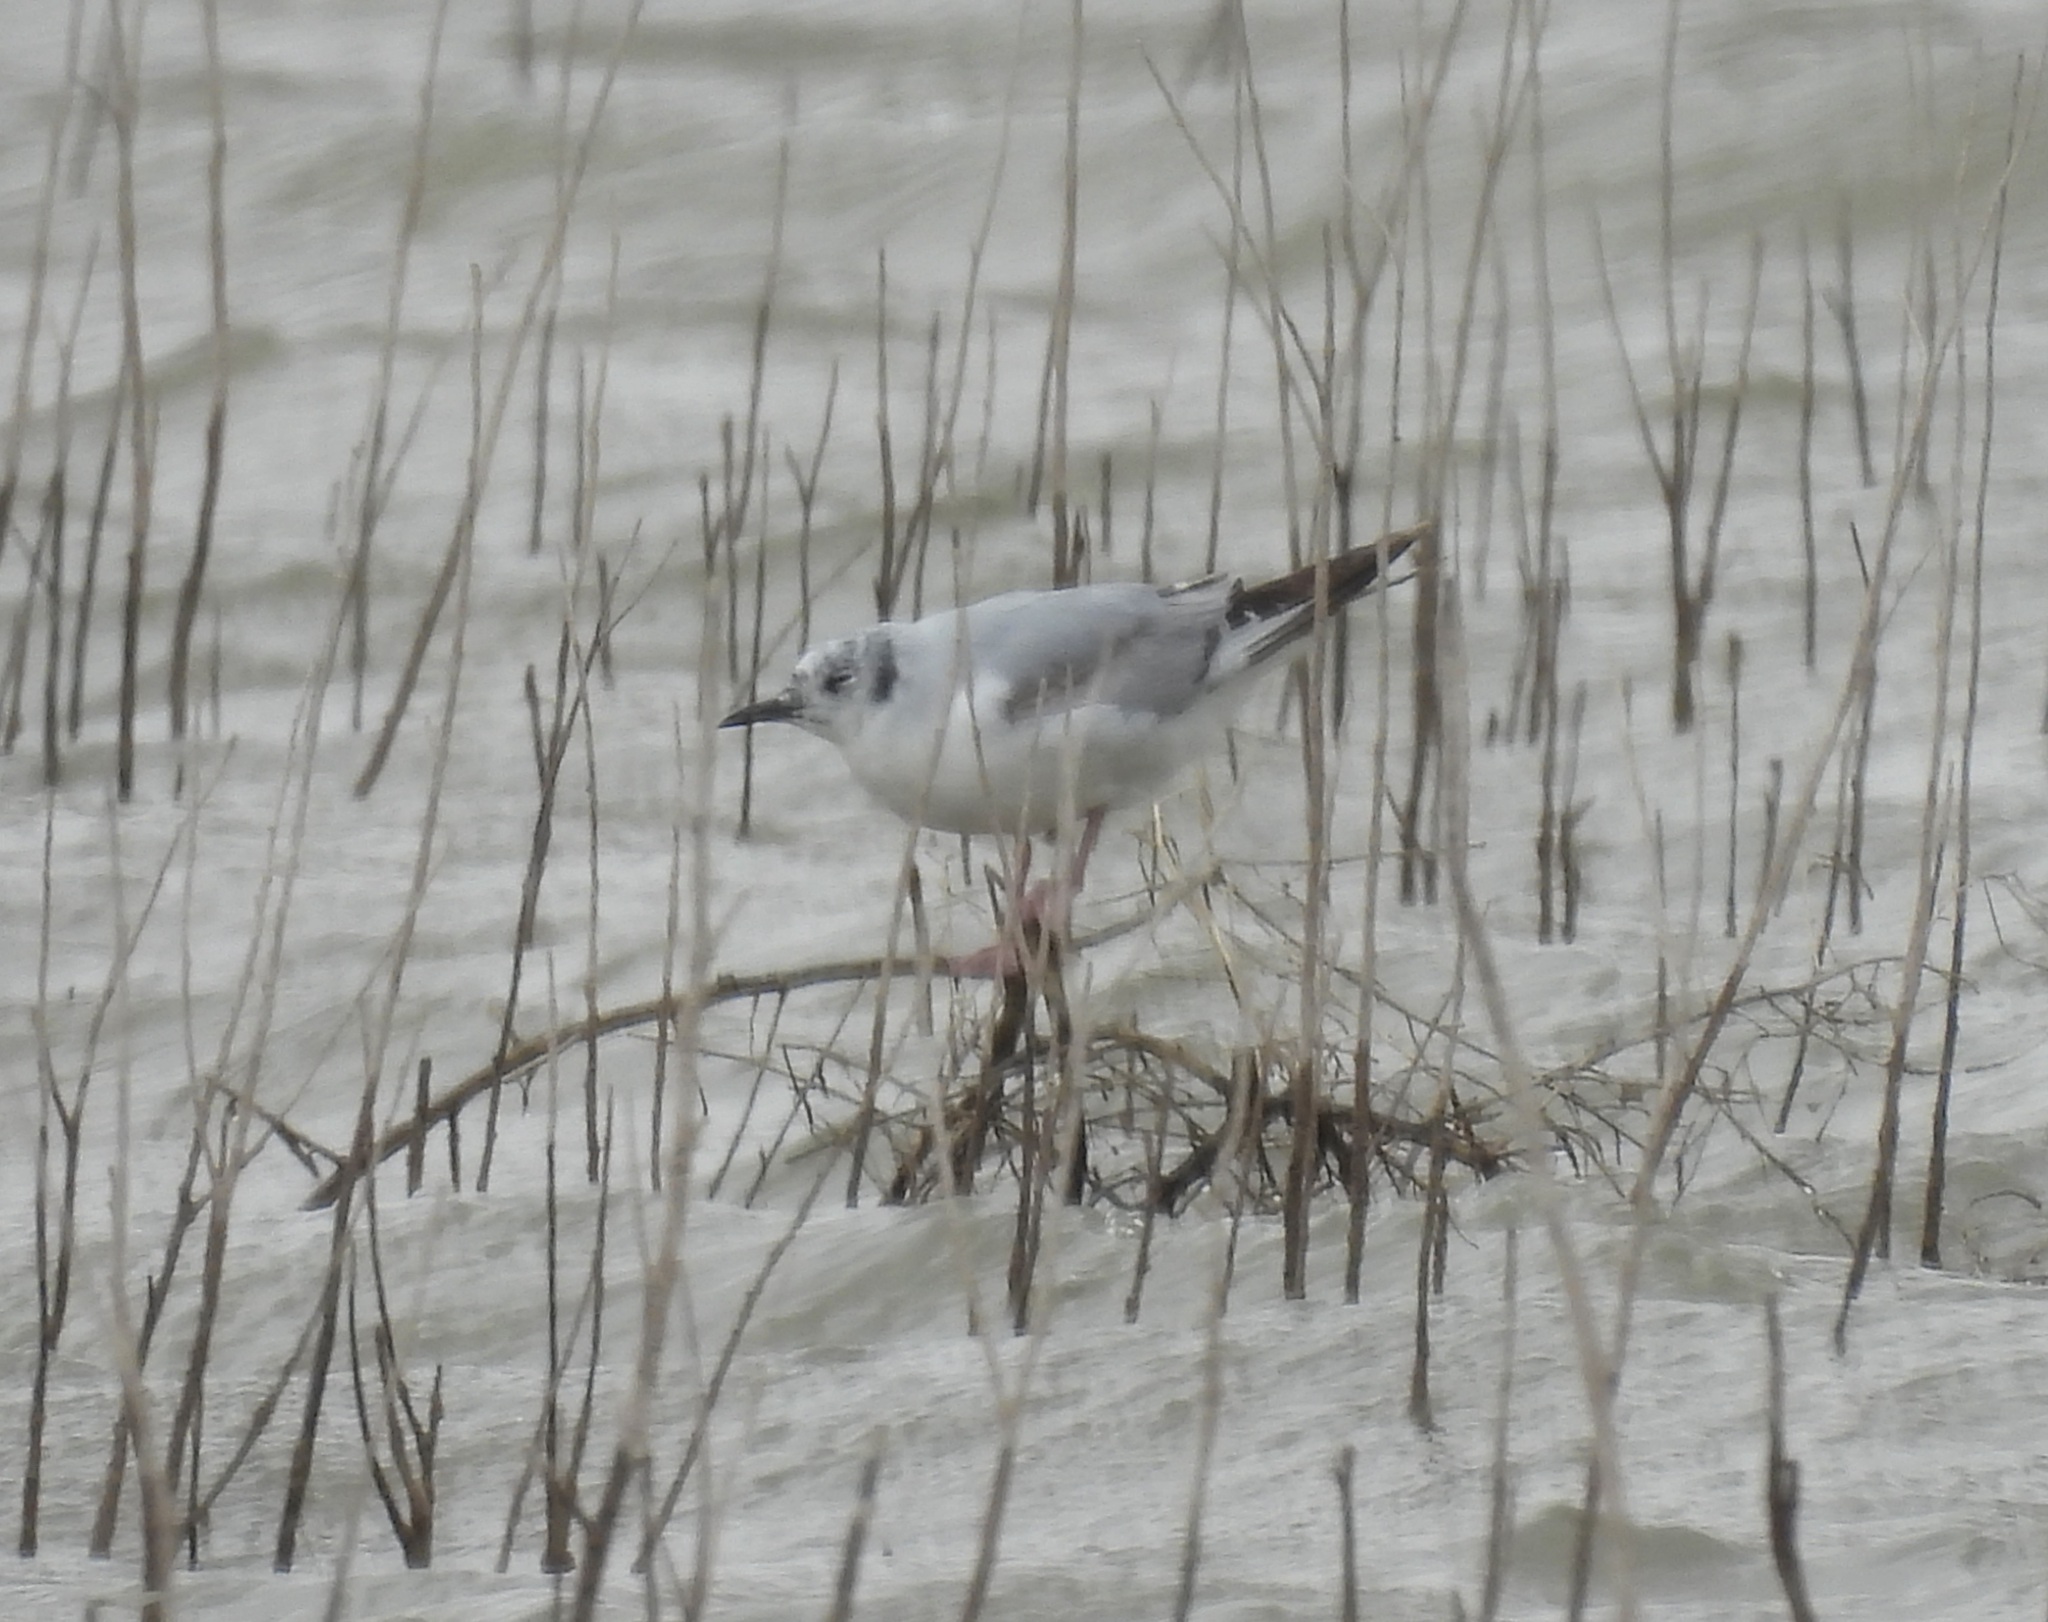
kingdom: Animalia
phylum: Chordata
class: Aves
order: Charadriiformes
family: Laridae
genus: Chroicocephalus
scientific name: Chroicocephalus philadelphia
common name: Bonaparte's gull
